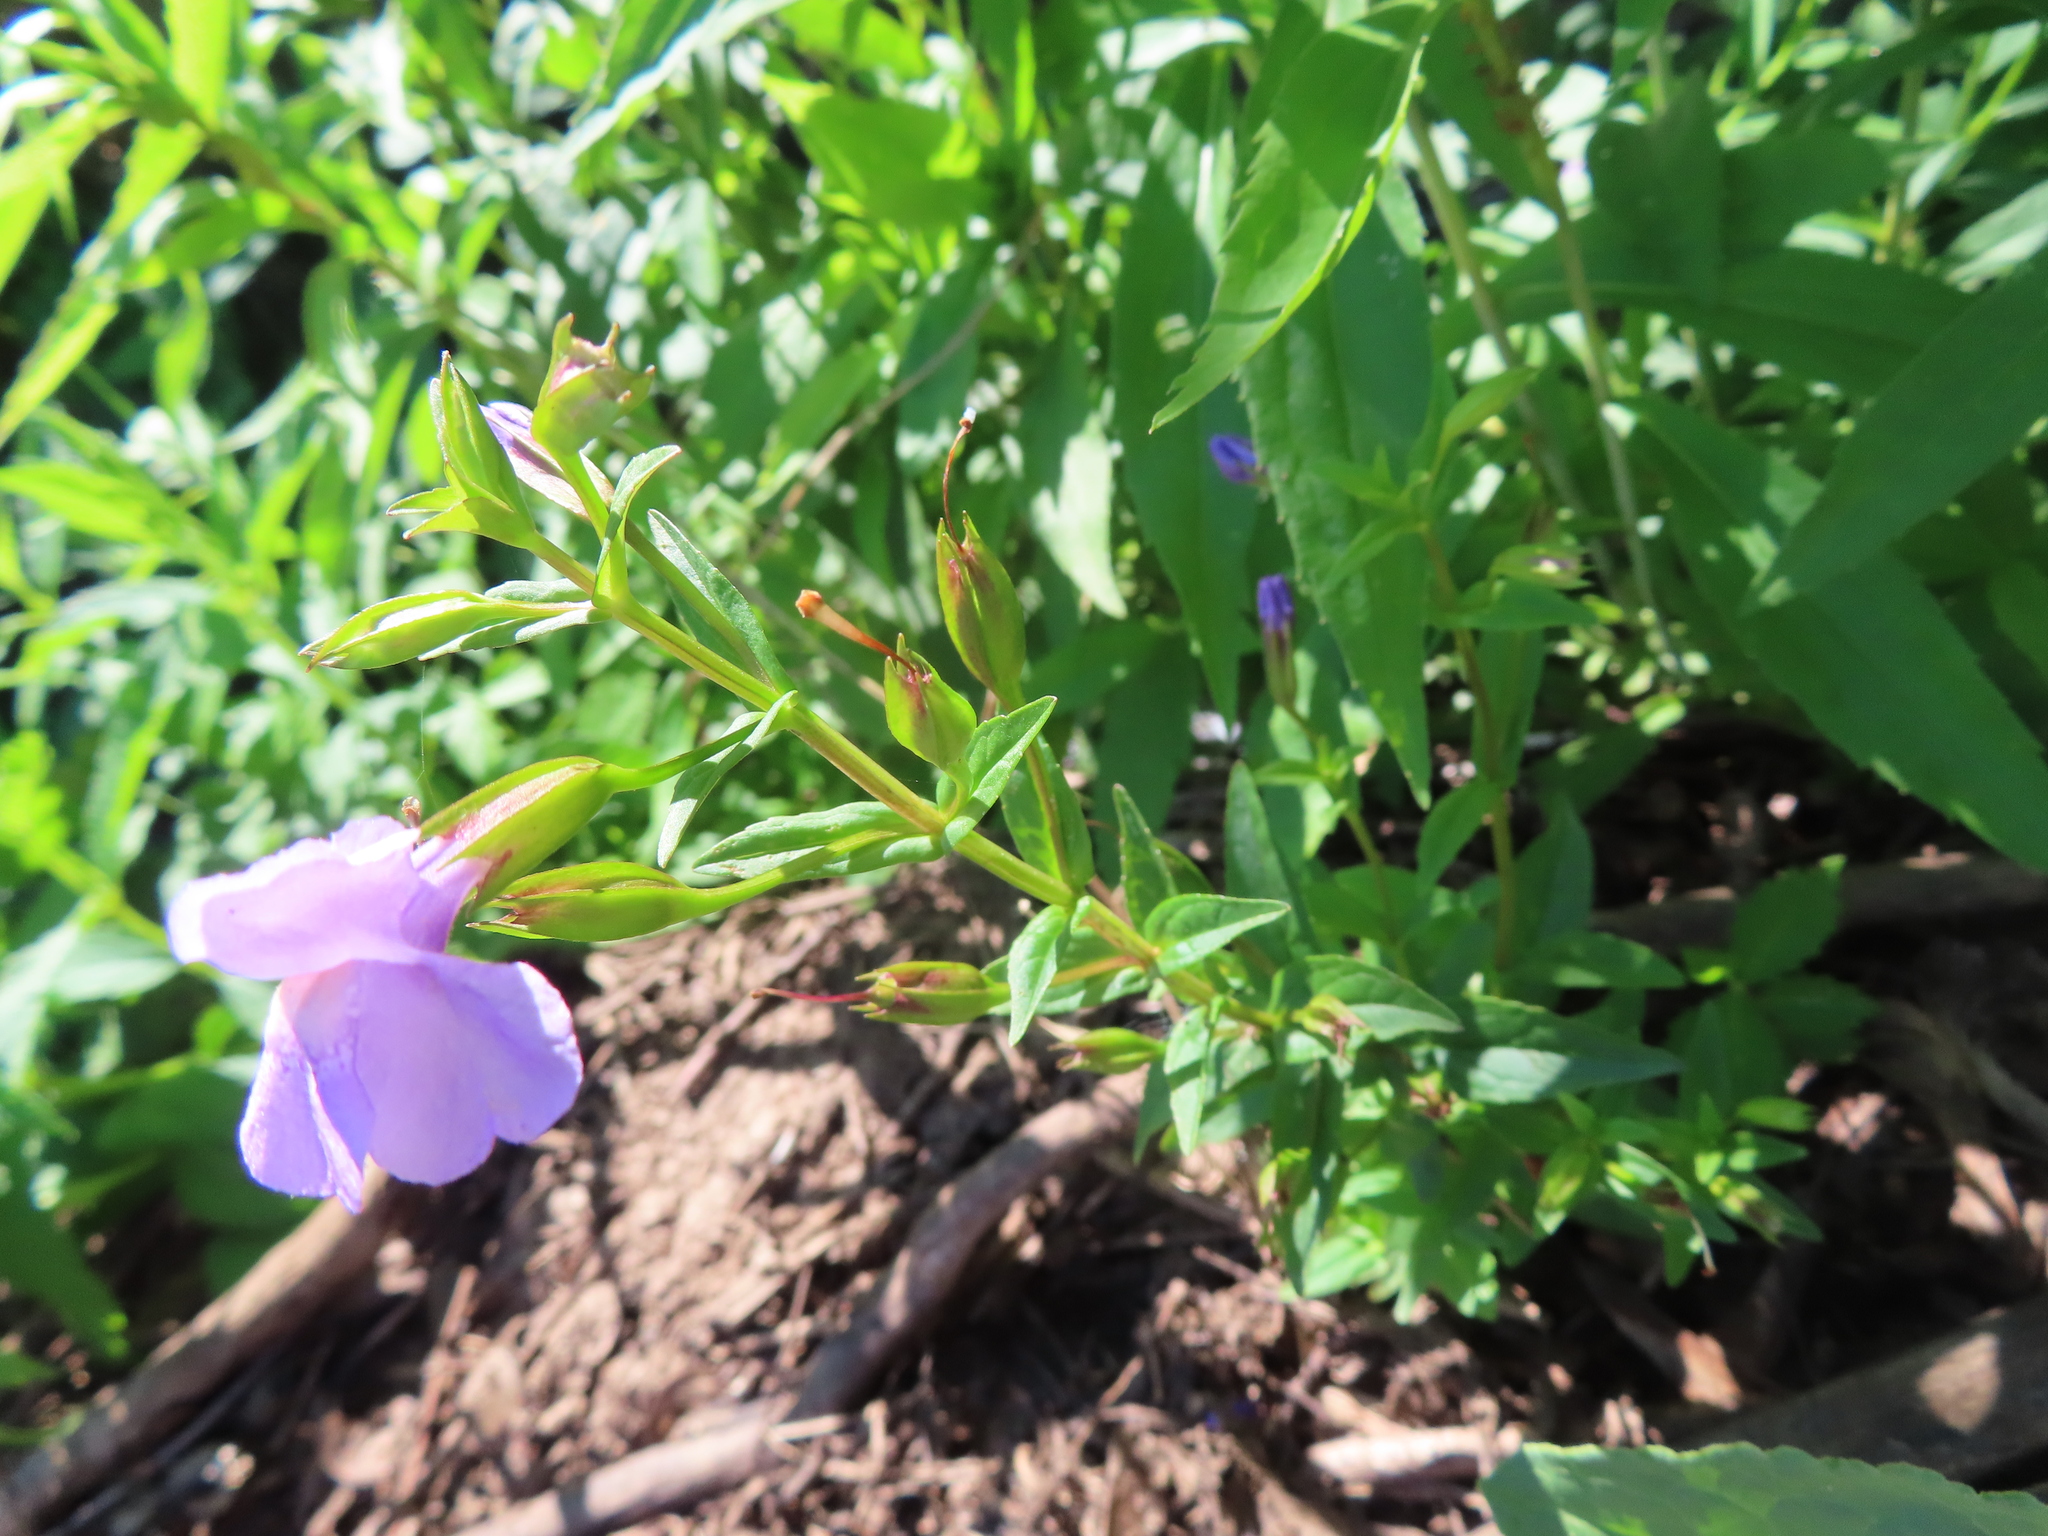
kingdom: Plantae
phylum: Tracheophyta
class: Magnoliopsida
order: Lamiales
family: Phrymaceae
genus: Mimulus
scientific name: Mimulus ringens
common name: Allegheny monkeyflower
